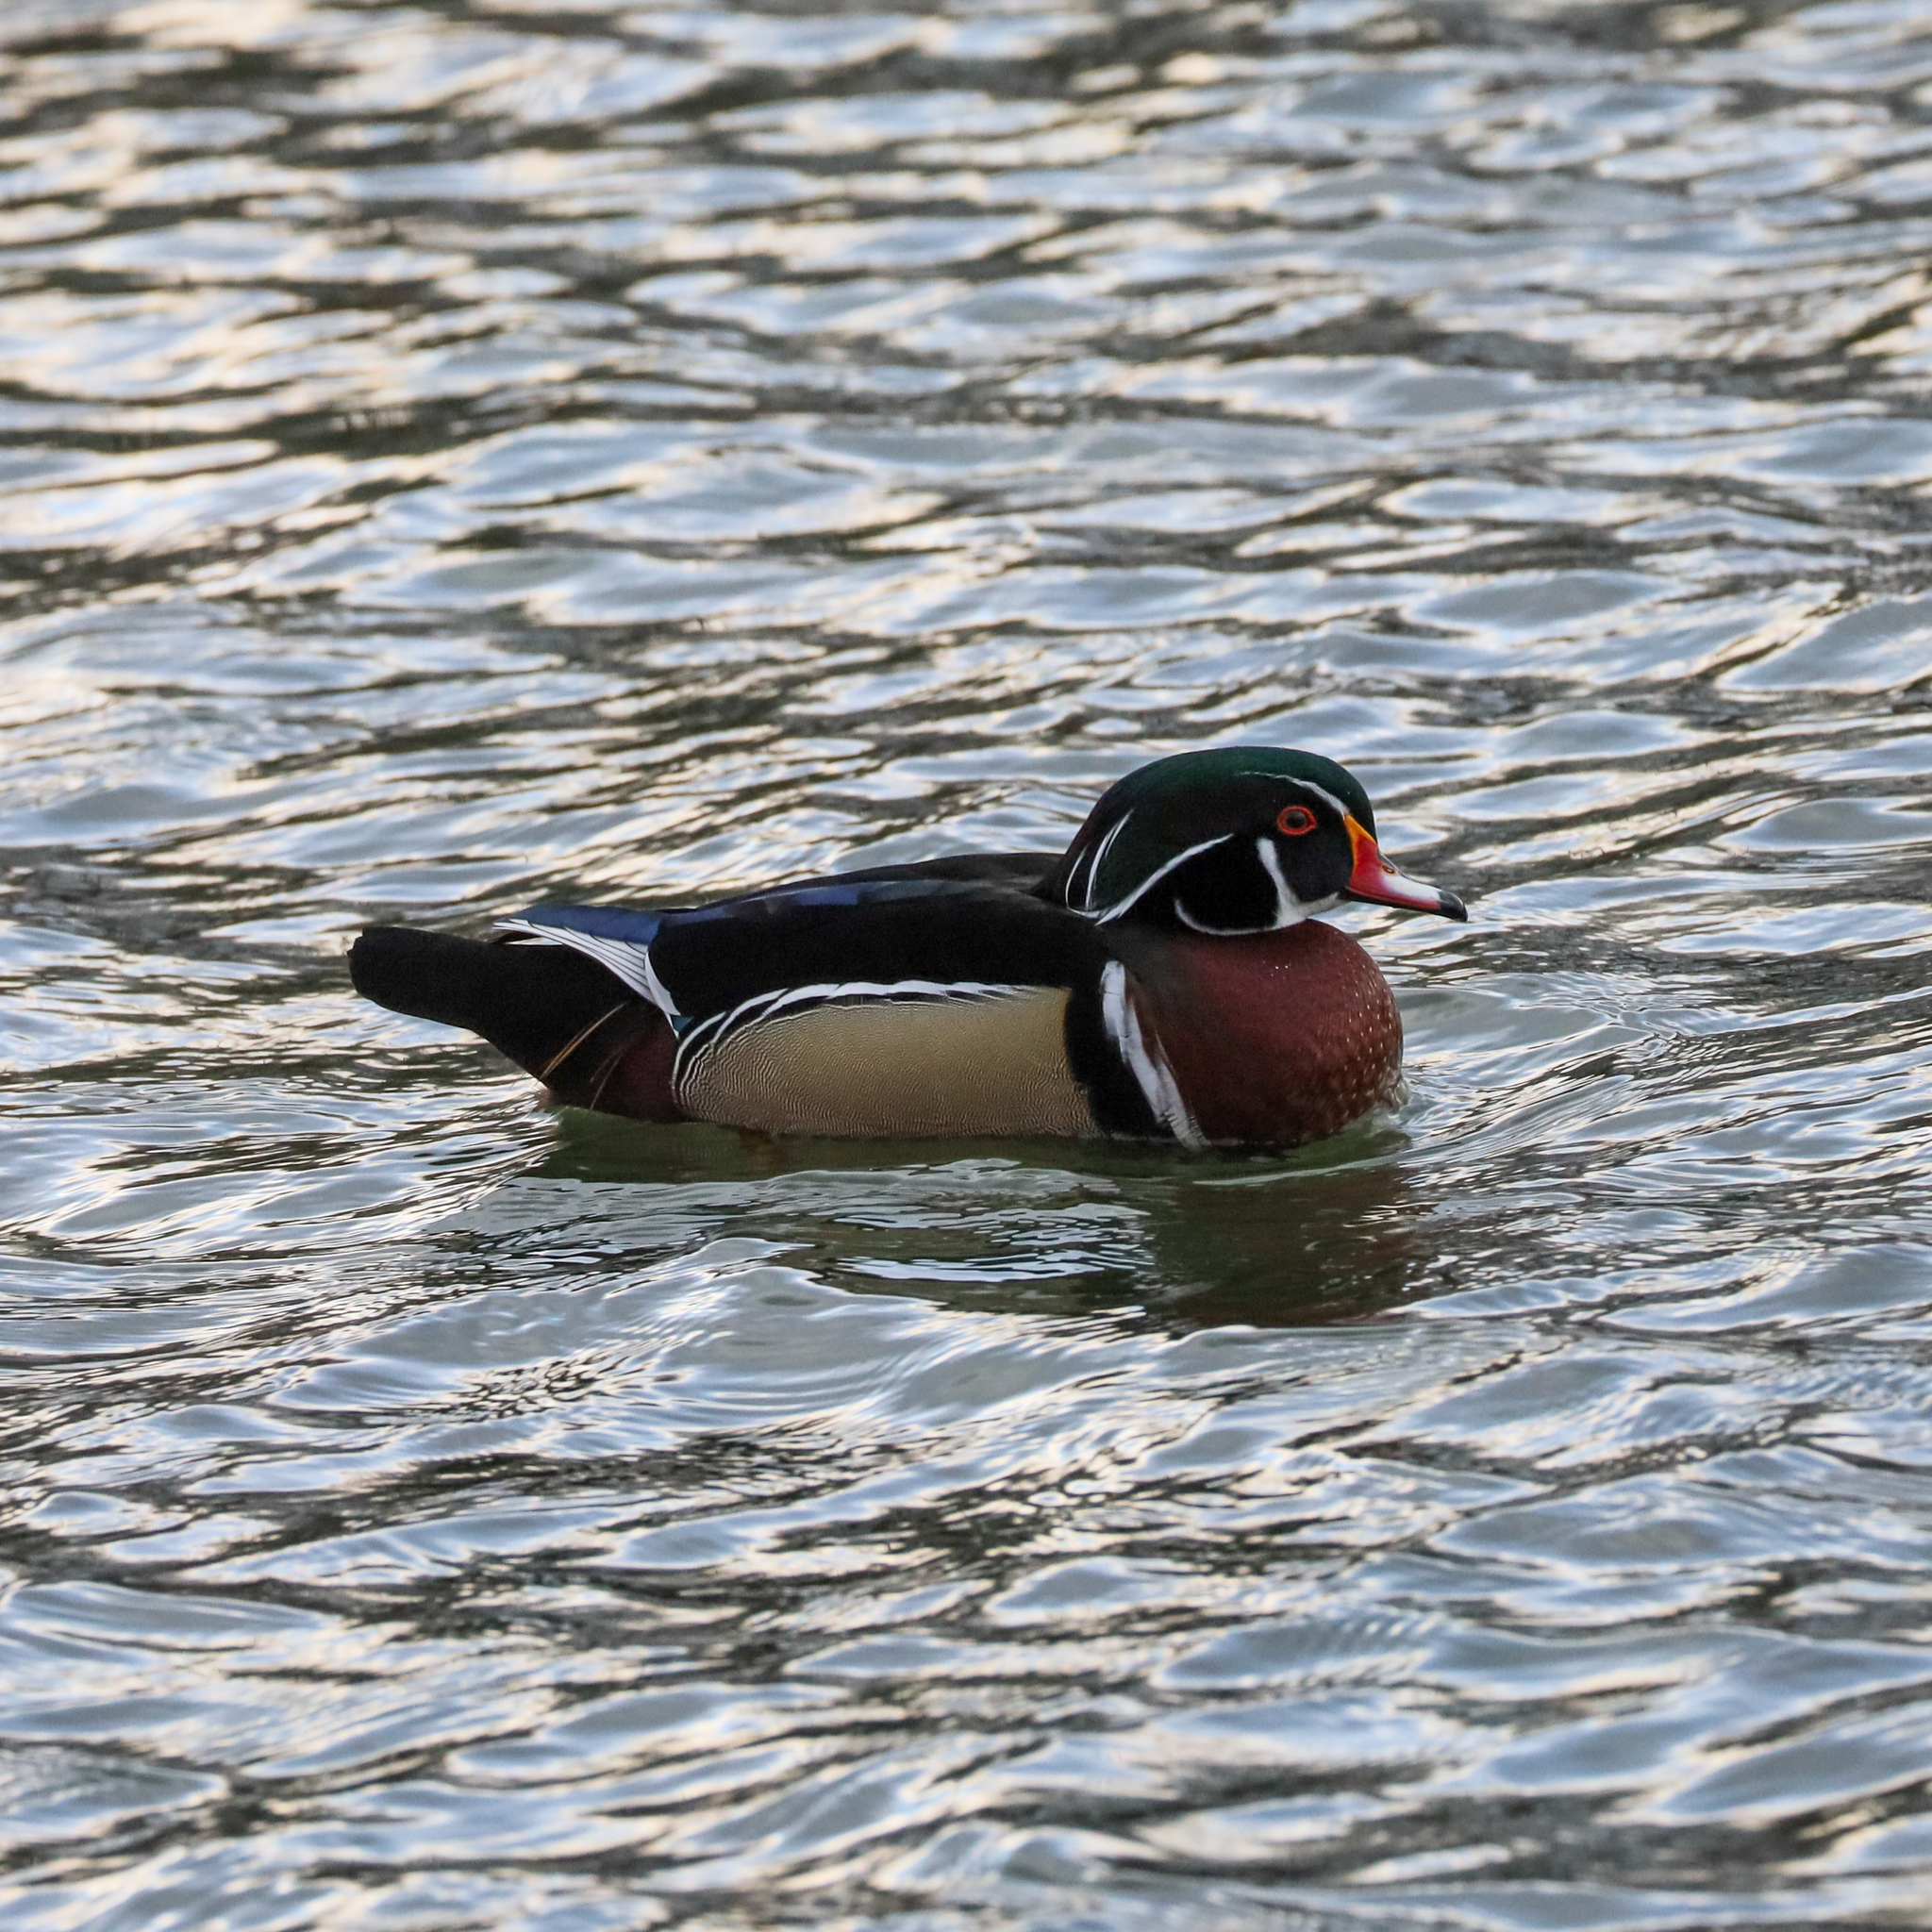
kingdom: Animalia
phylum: Chordata
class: Aves
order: Anseriformes
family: Anatidae
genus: Aix
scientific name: Aix sponsa
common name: Wood duck
